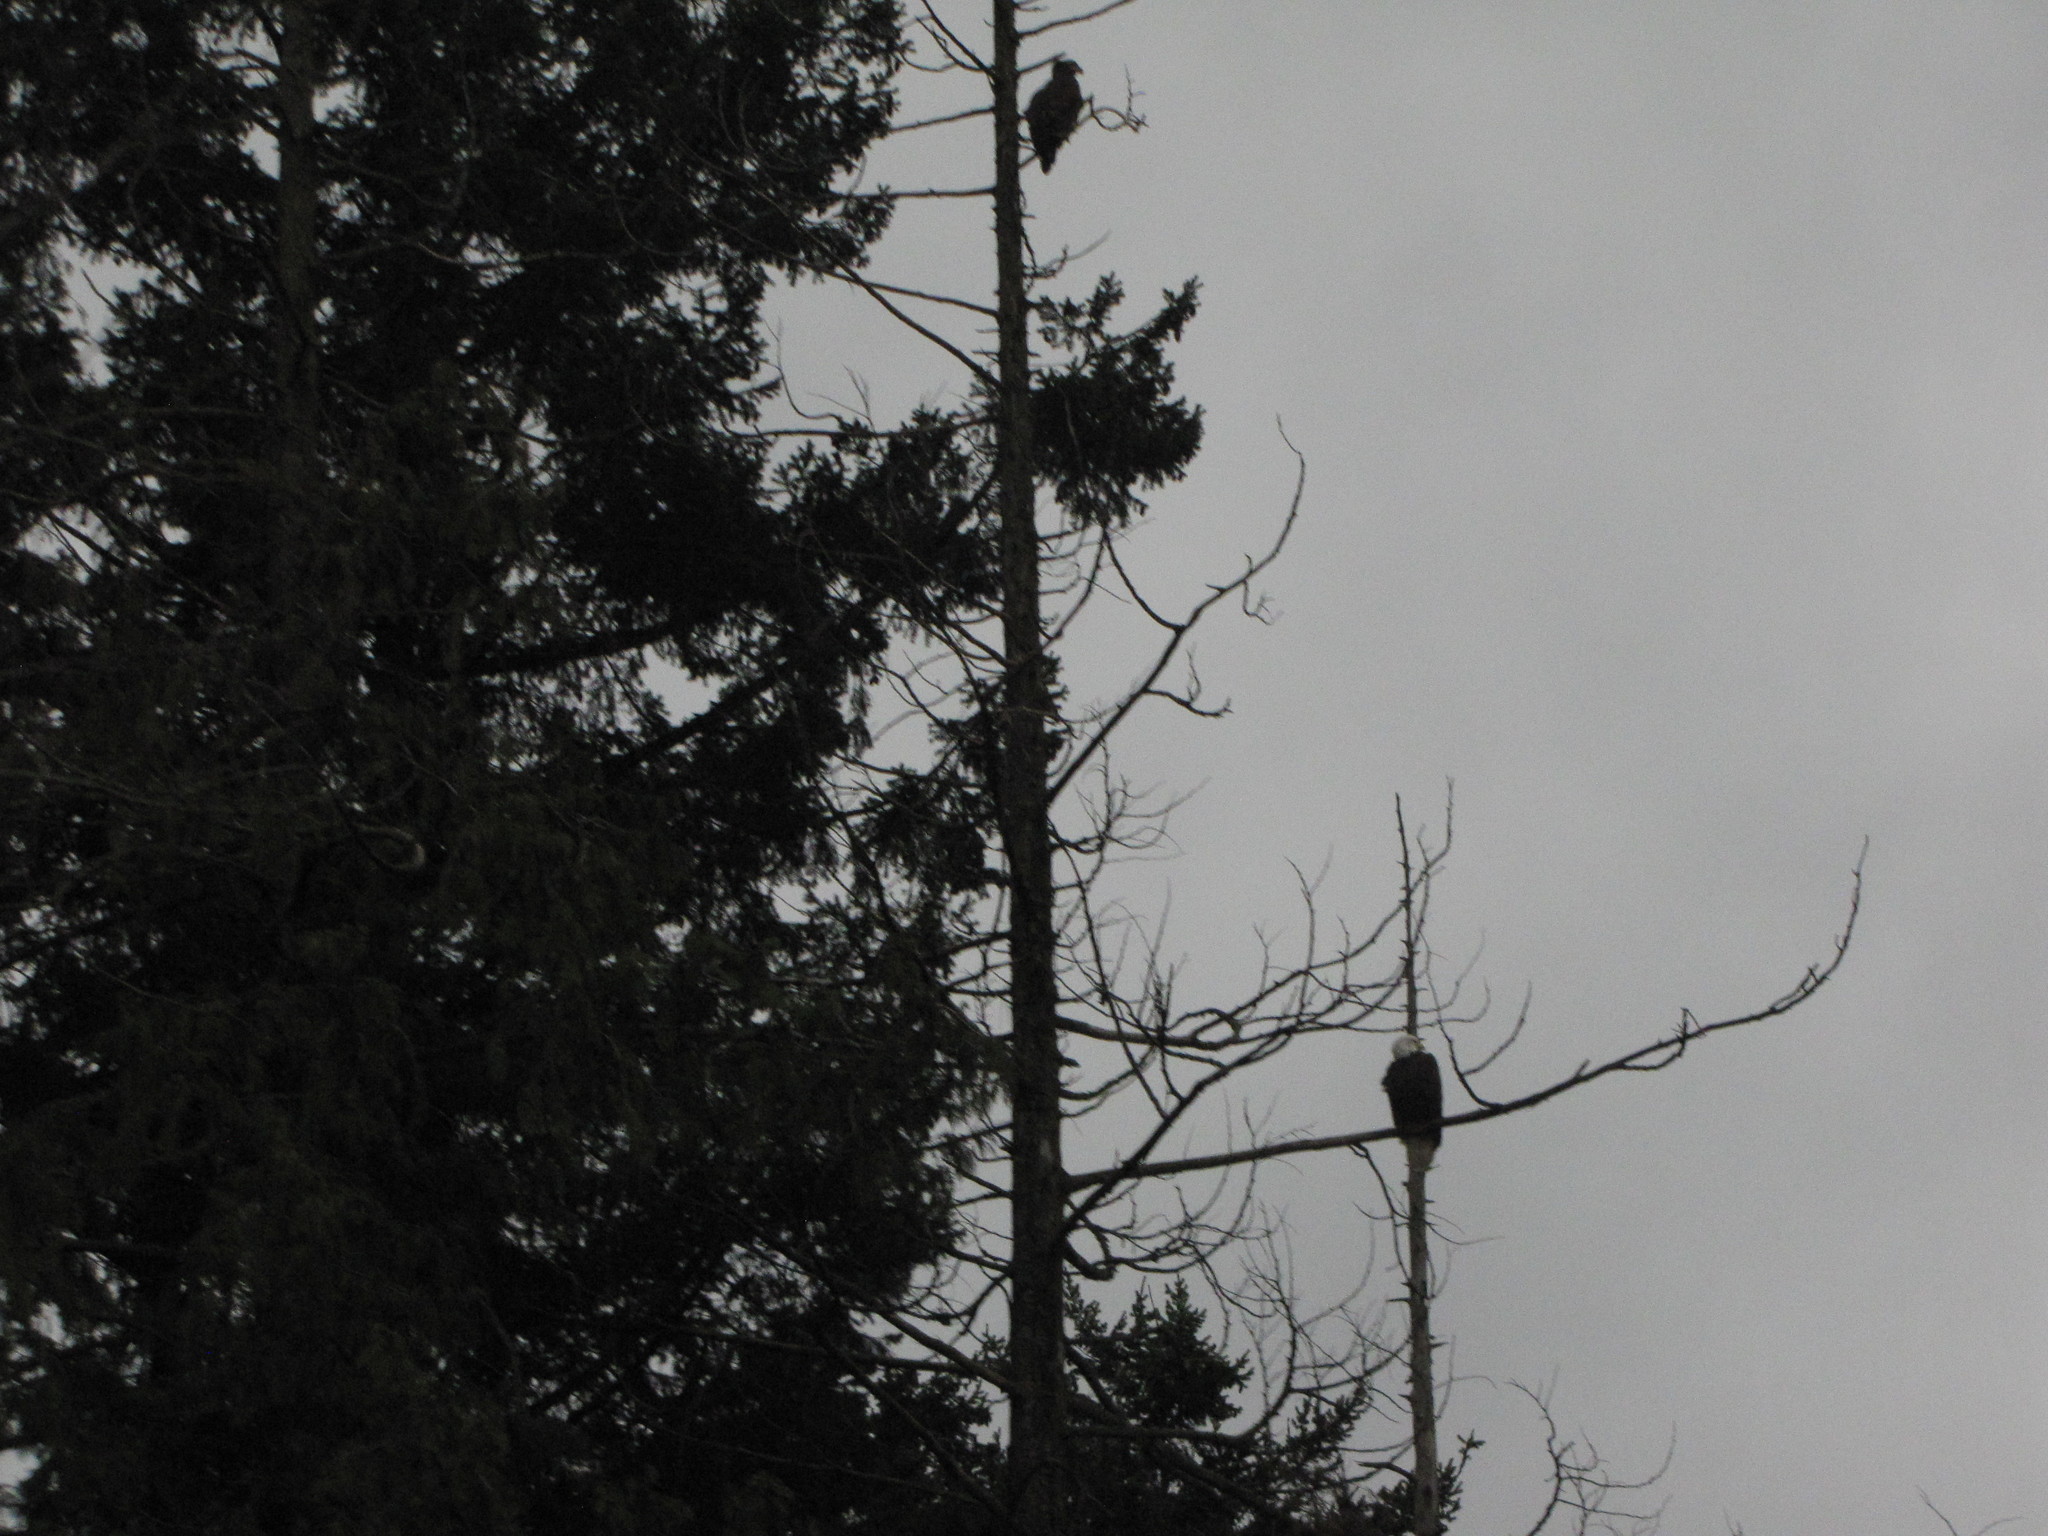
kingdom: Animalia
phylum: Chordata
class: Aves
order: Accipitriformes
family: Accipitridae
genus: Haliaeetus
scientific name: Haliaeetus leucocephalus
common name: Bald eagle
